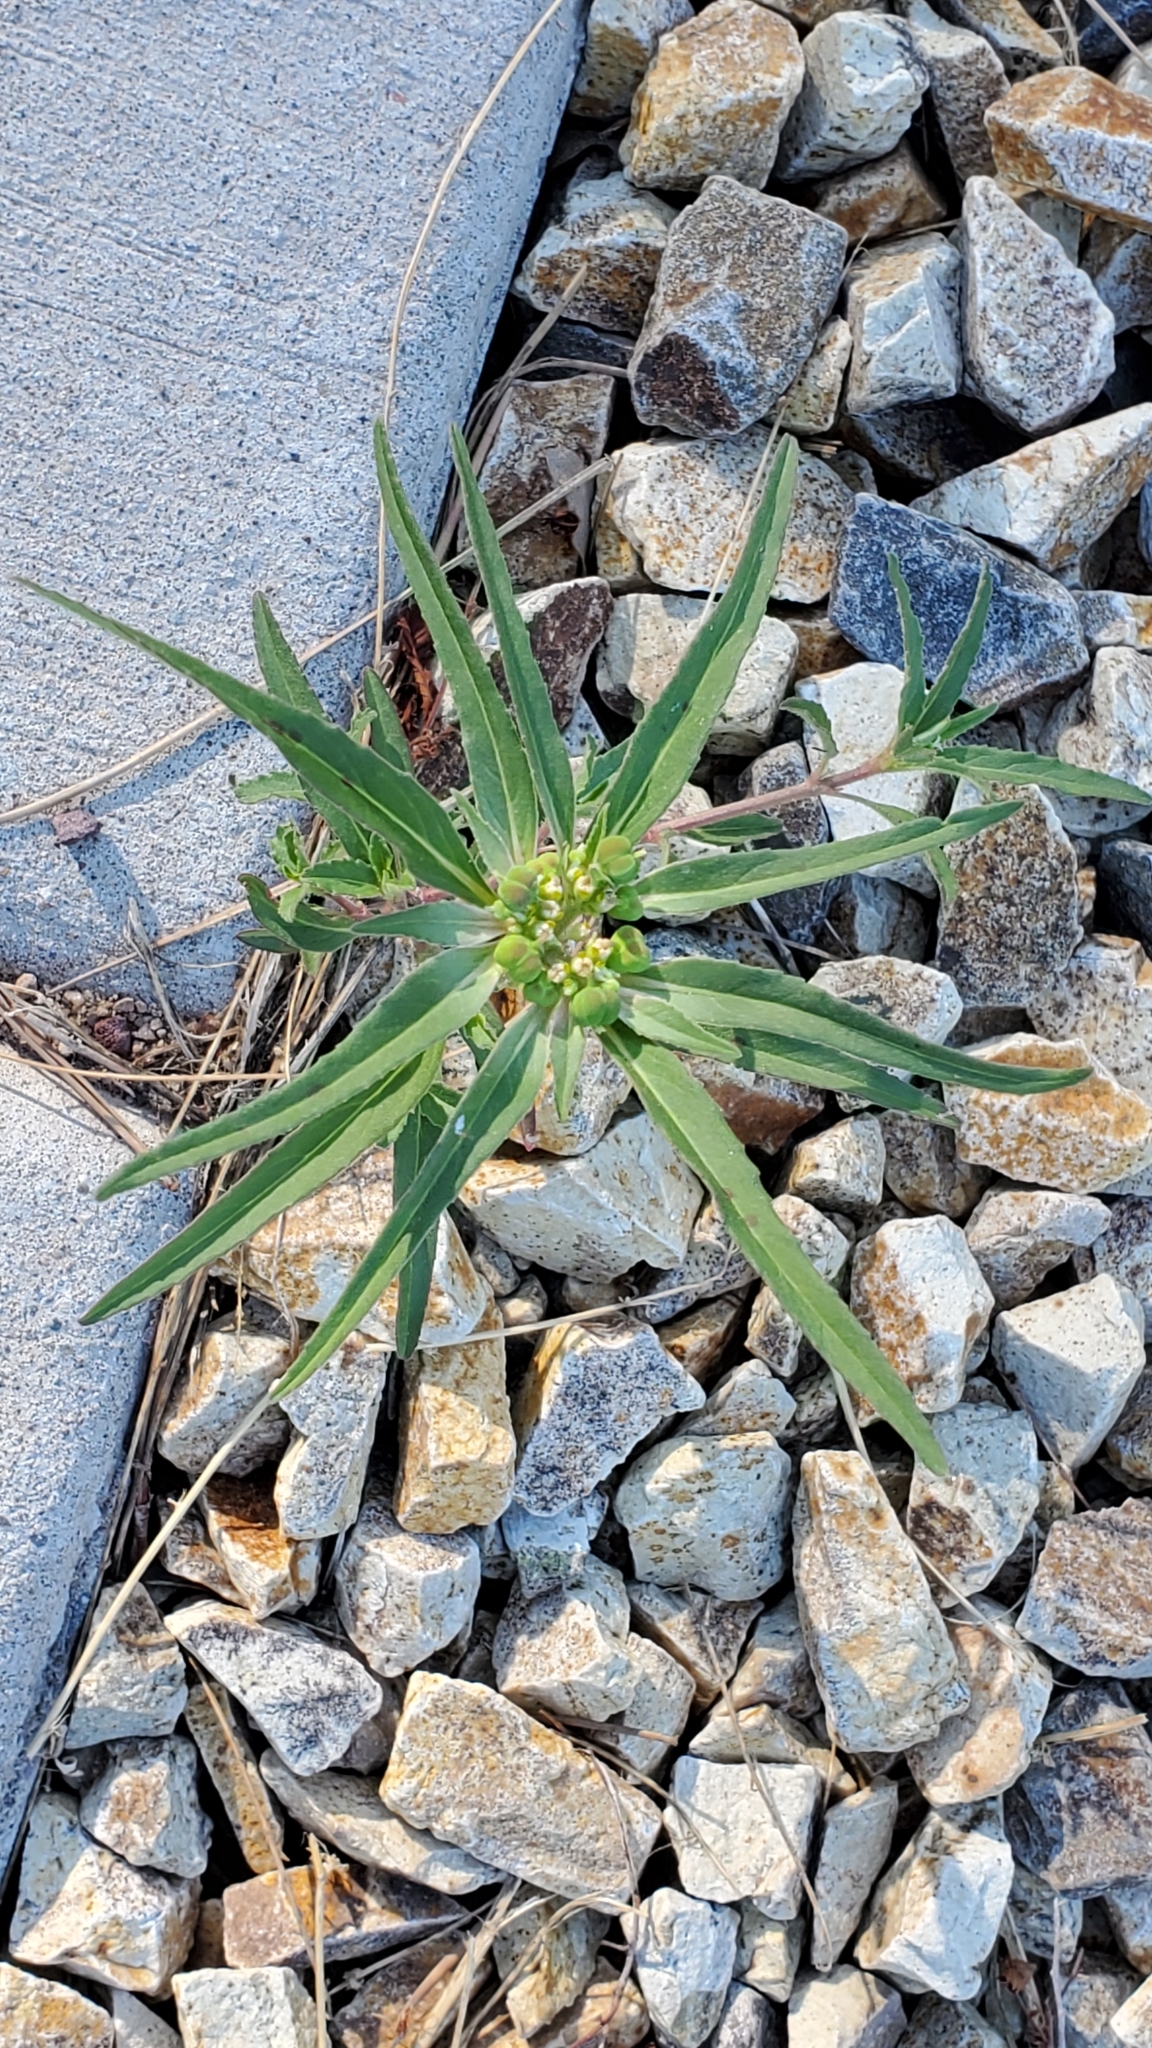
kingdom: Plantae
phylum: Tracheophyta
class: Magnoliopsida
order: Malpighiales
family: Euphorbiaceae
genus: Euphorbia
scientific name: Euphorbia davidii
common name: David's spurge
